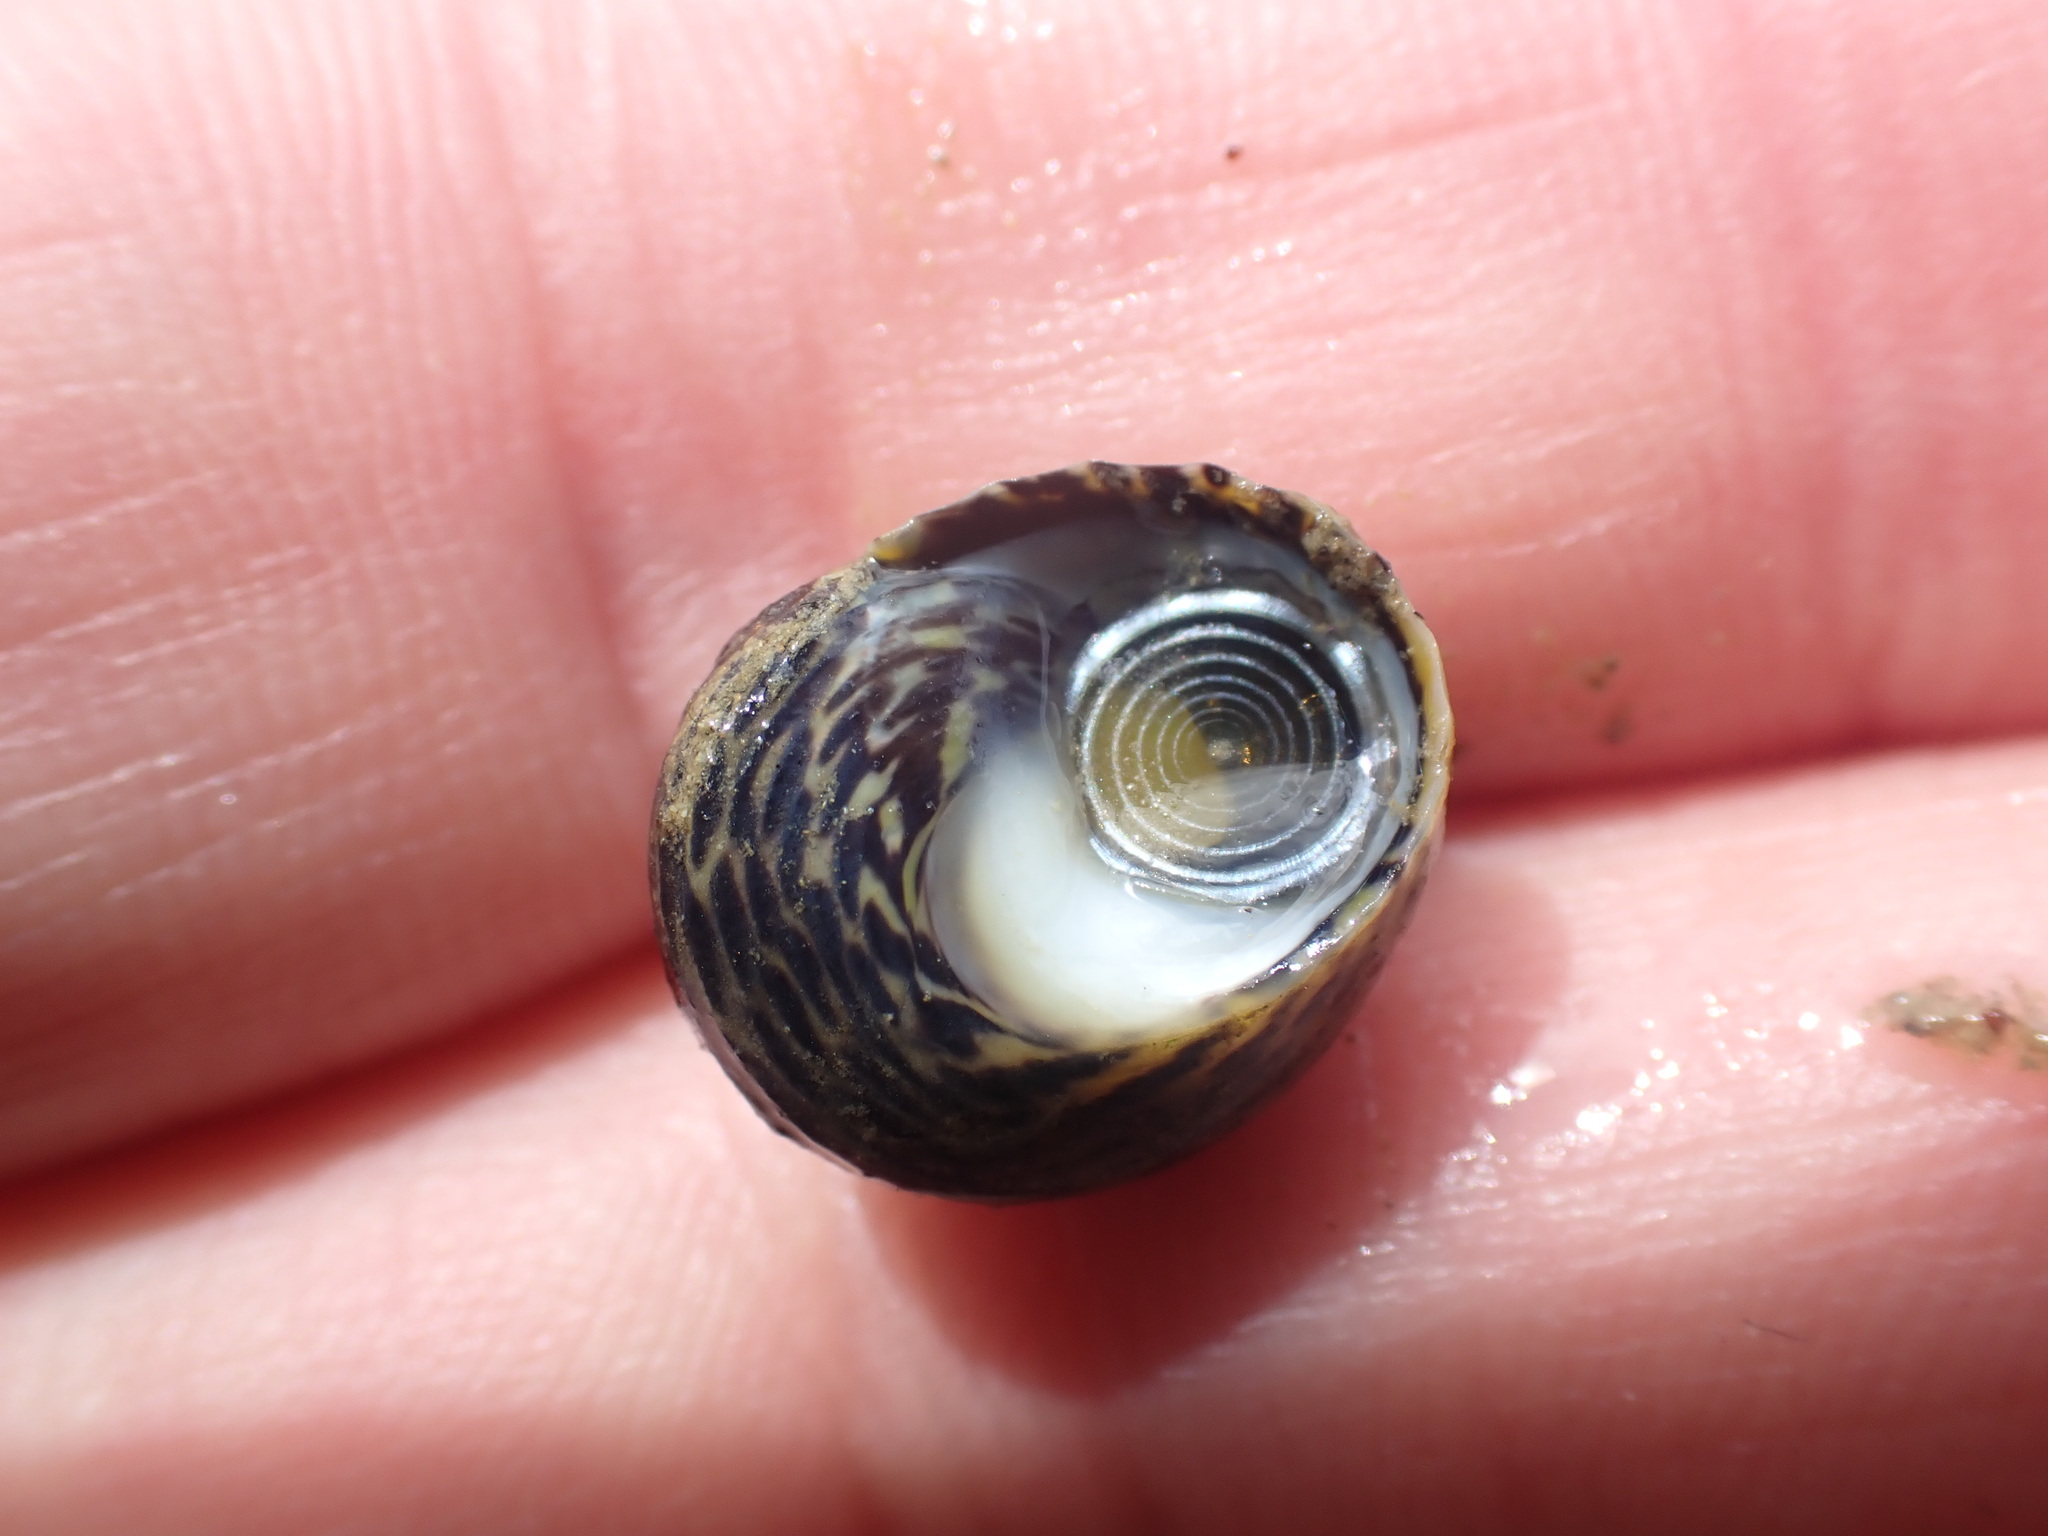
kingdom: Animalia
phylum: Mollusca
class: Gastropoda
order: Trochida
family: Trochidae
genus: Diloma
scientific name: Diloma subrostratum
